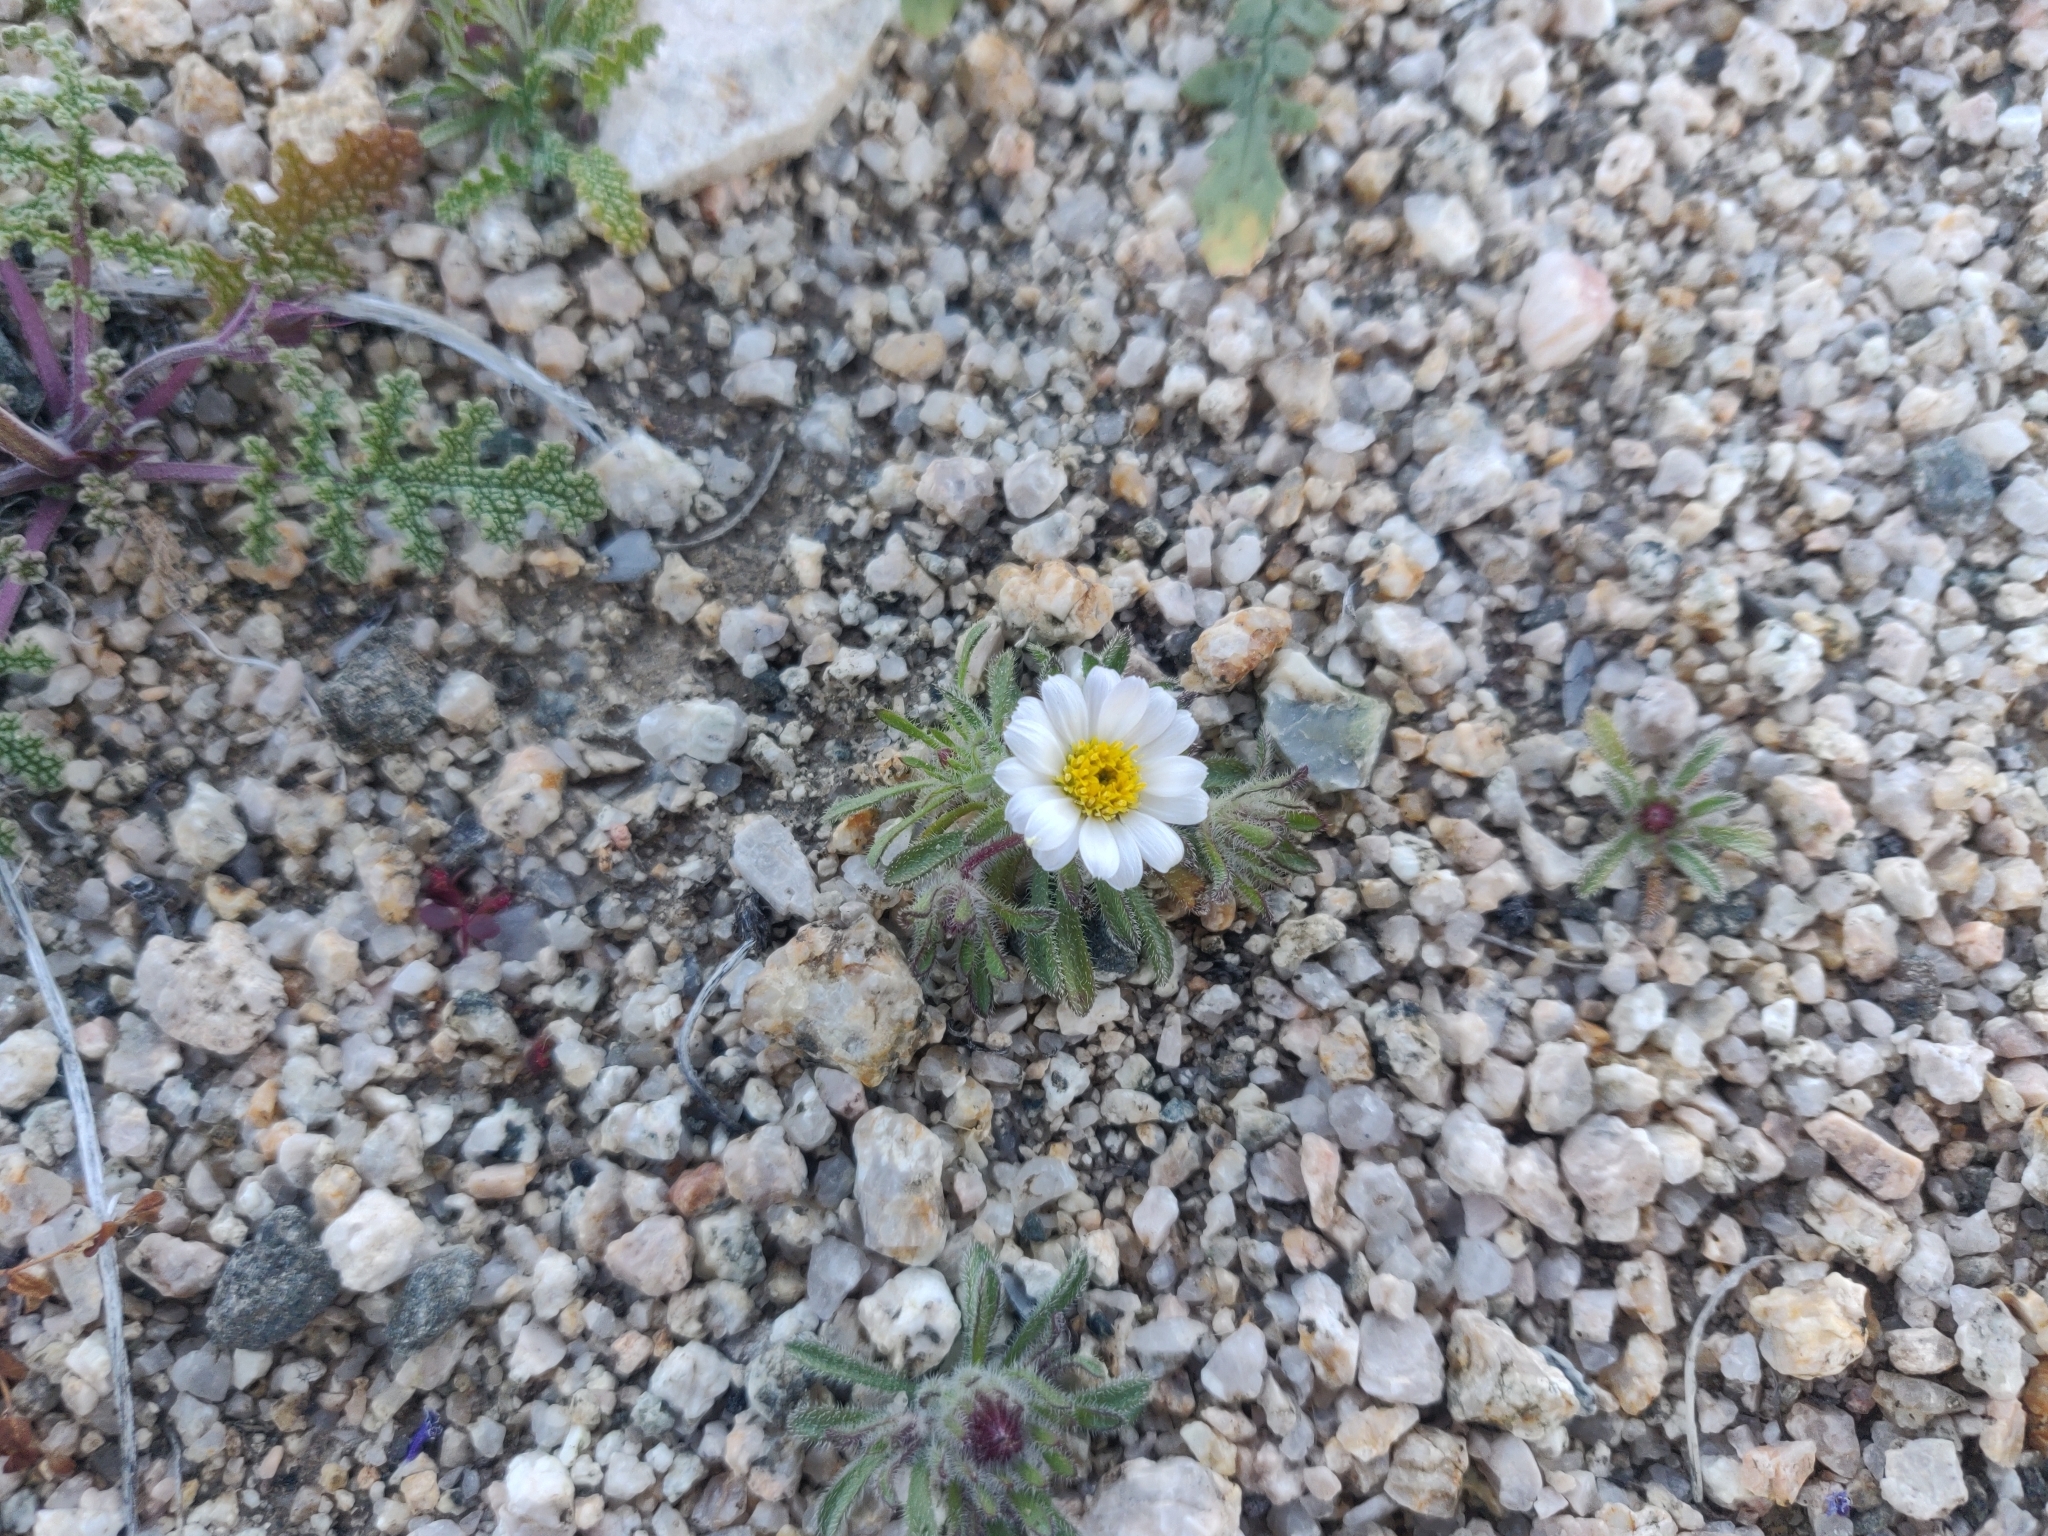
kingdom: Plantae
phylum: Tracheophyta
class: Magnoliopsida
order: Asterales
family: Asteraceae
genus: Monoptilon
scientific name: Monoptilon bellioides
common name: Bristly desertstar
